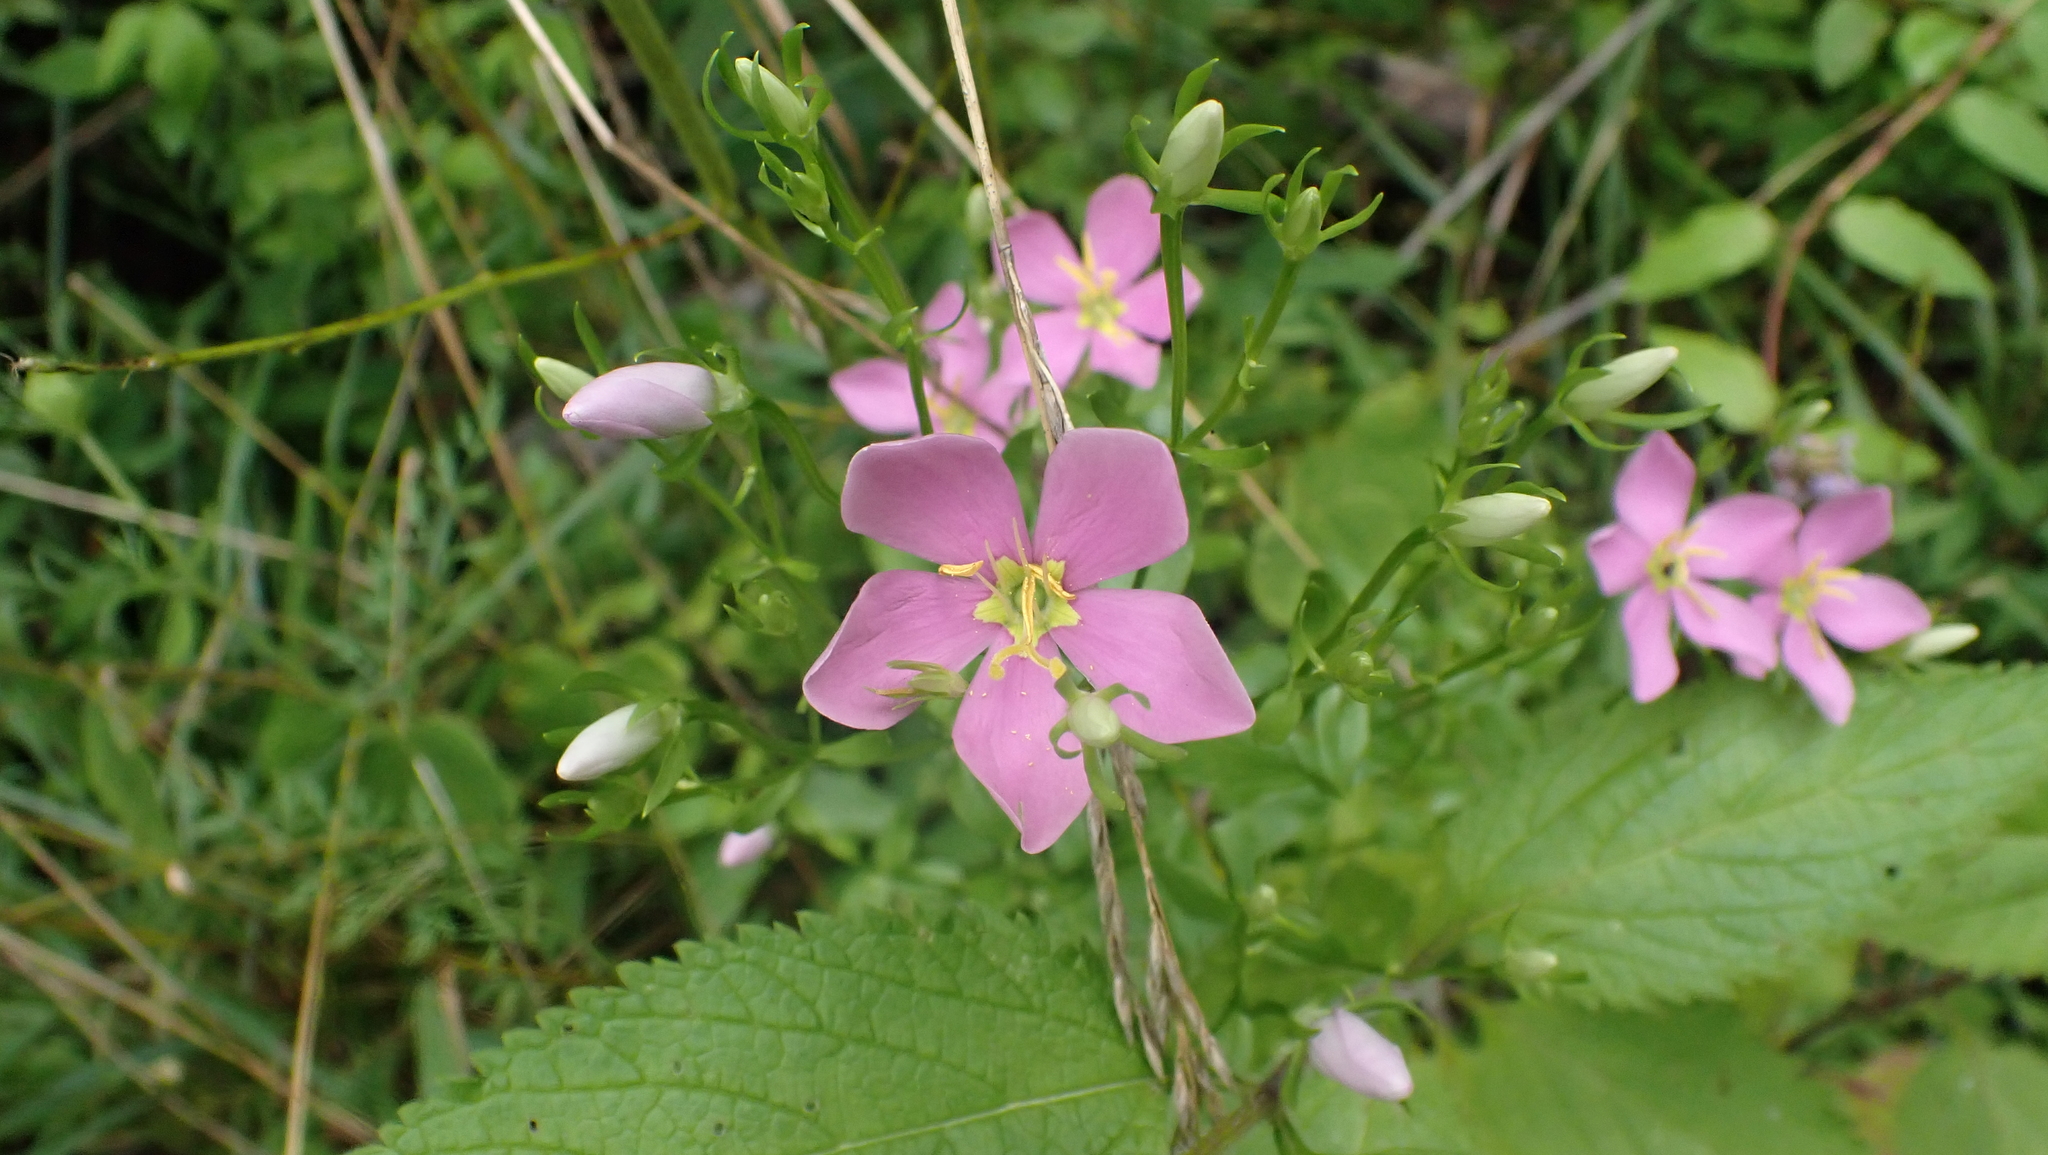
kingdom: Plantae
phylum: Tracheophyta
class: Magnoliopsida
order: Gentianales
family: Gentianaceae
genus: Sabatia
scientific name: Sabatia angularis
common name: Rose-pink
